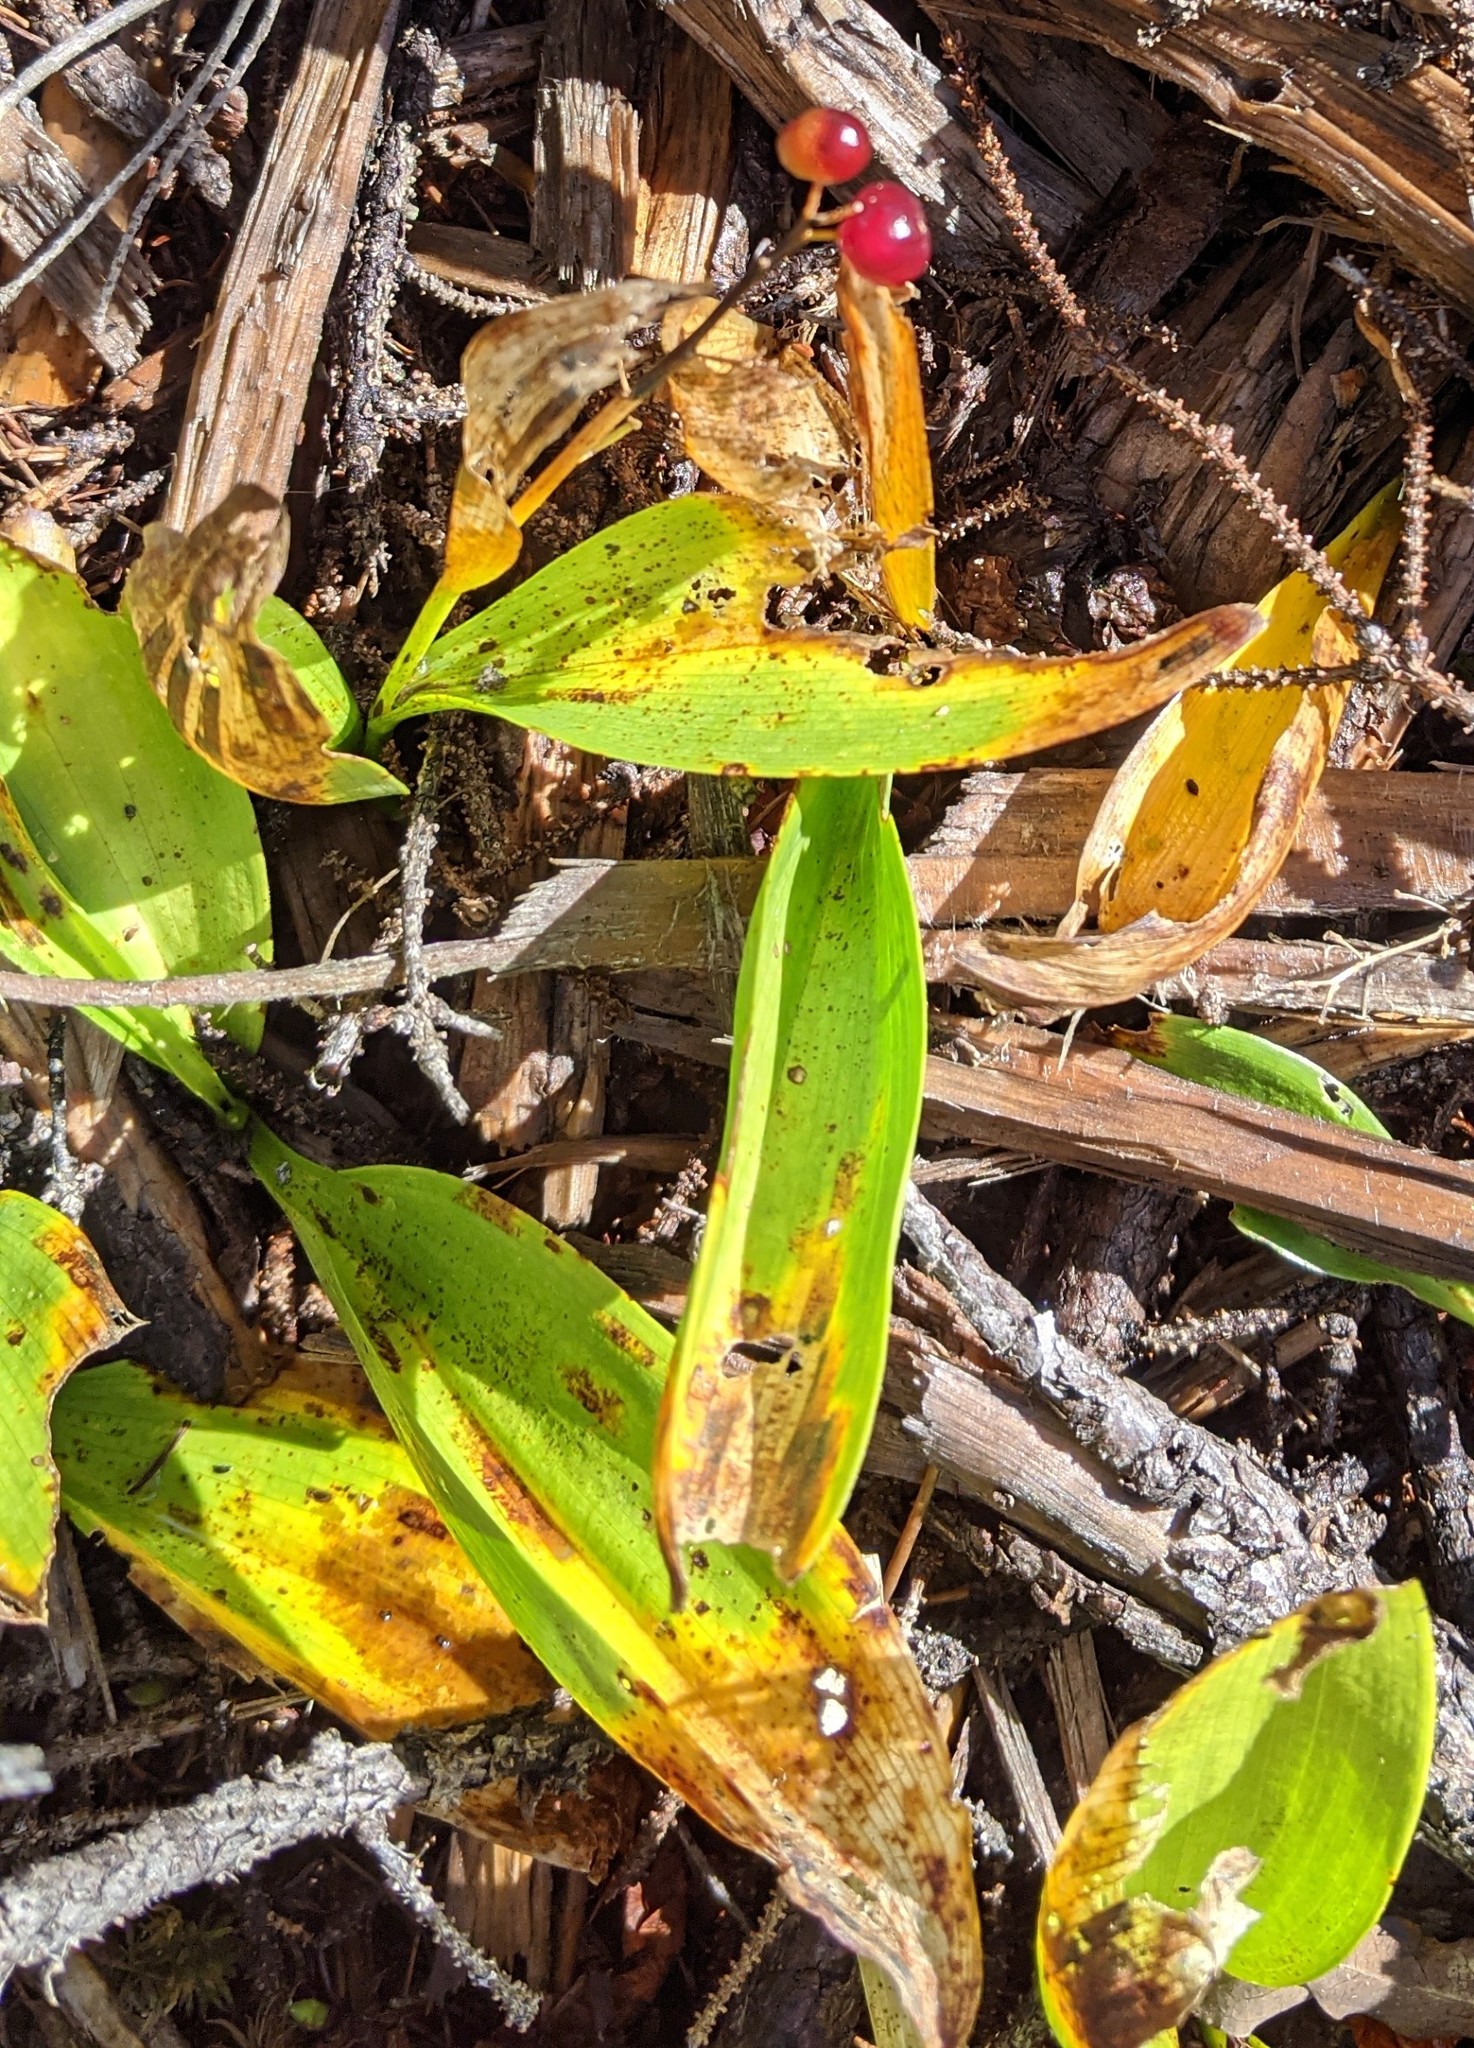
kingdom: Plantae
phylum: Tracheophyta
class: Liliopsida
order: Asparagales
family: Asparagaceae
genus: Maianthemum
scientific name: Maianthemum trifolium
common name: Swamp false solomon's seal
